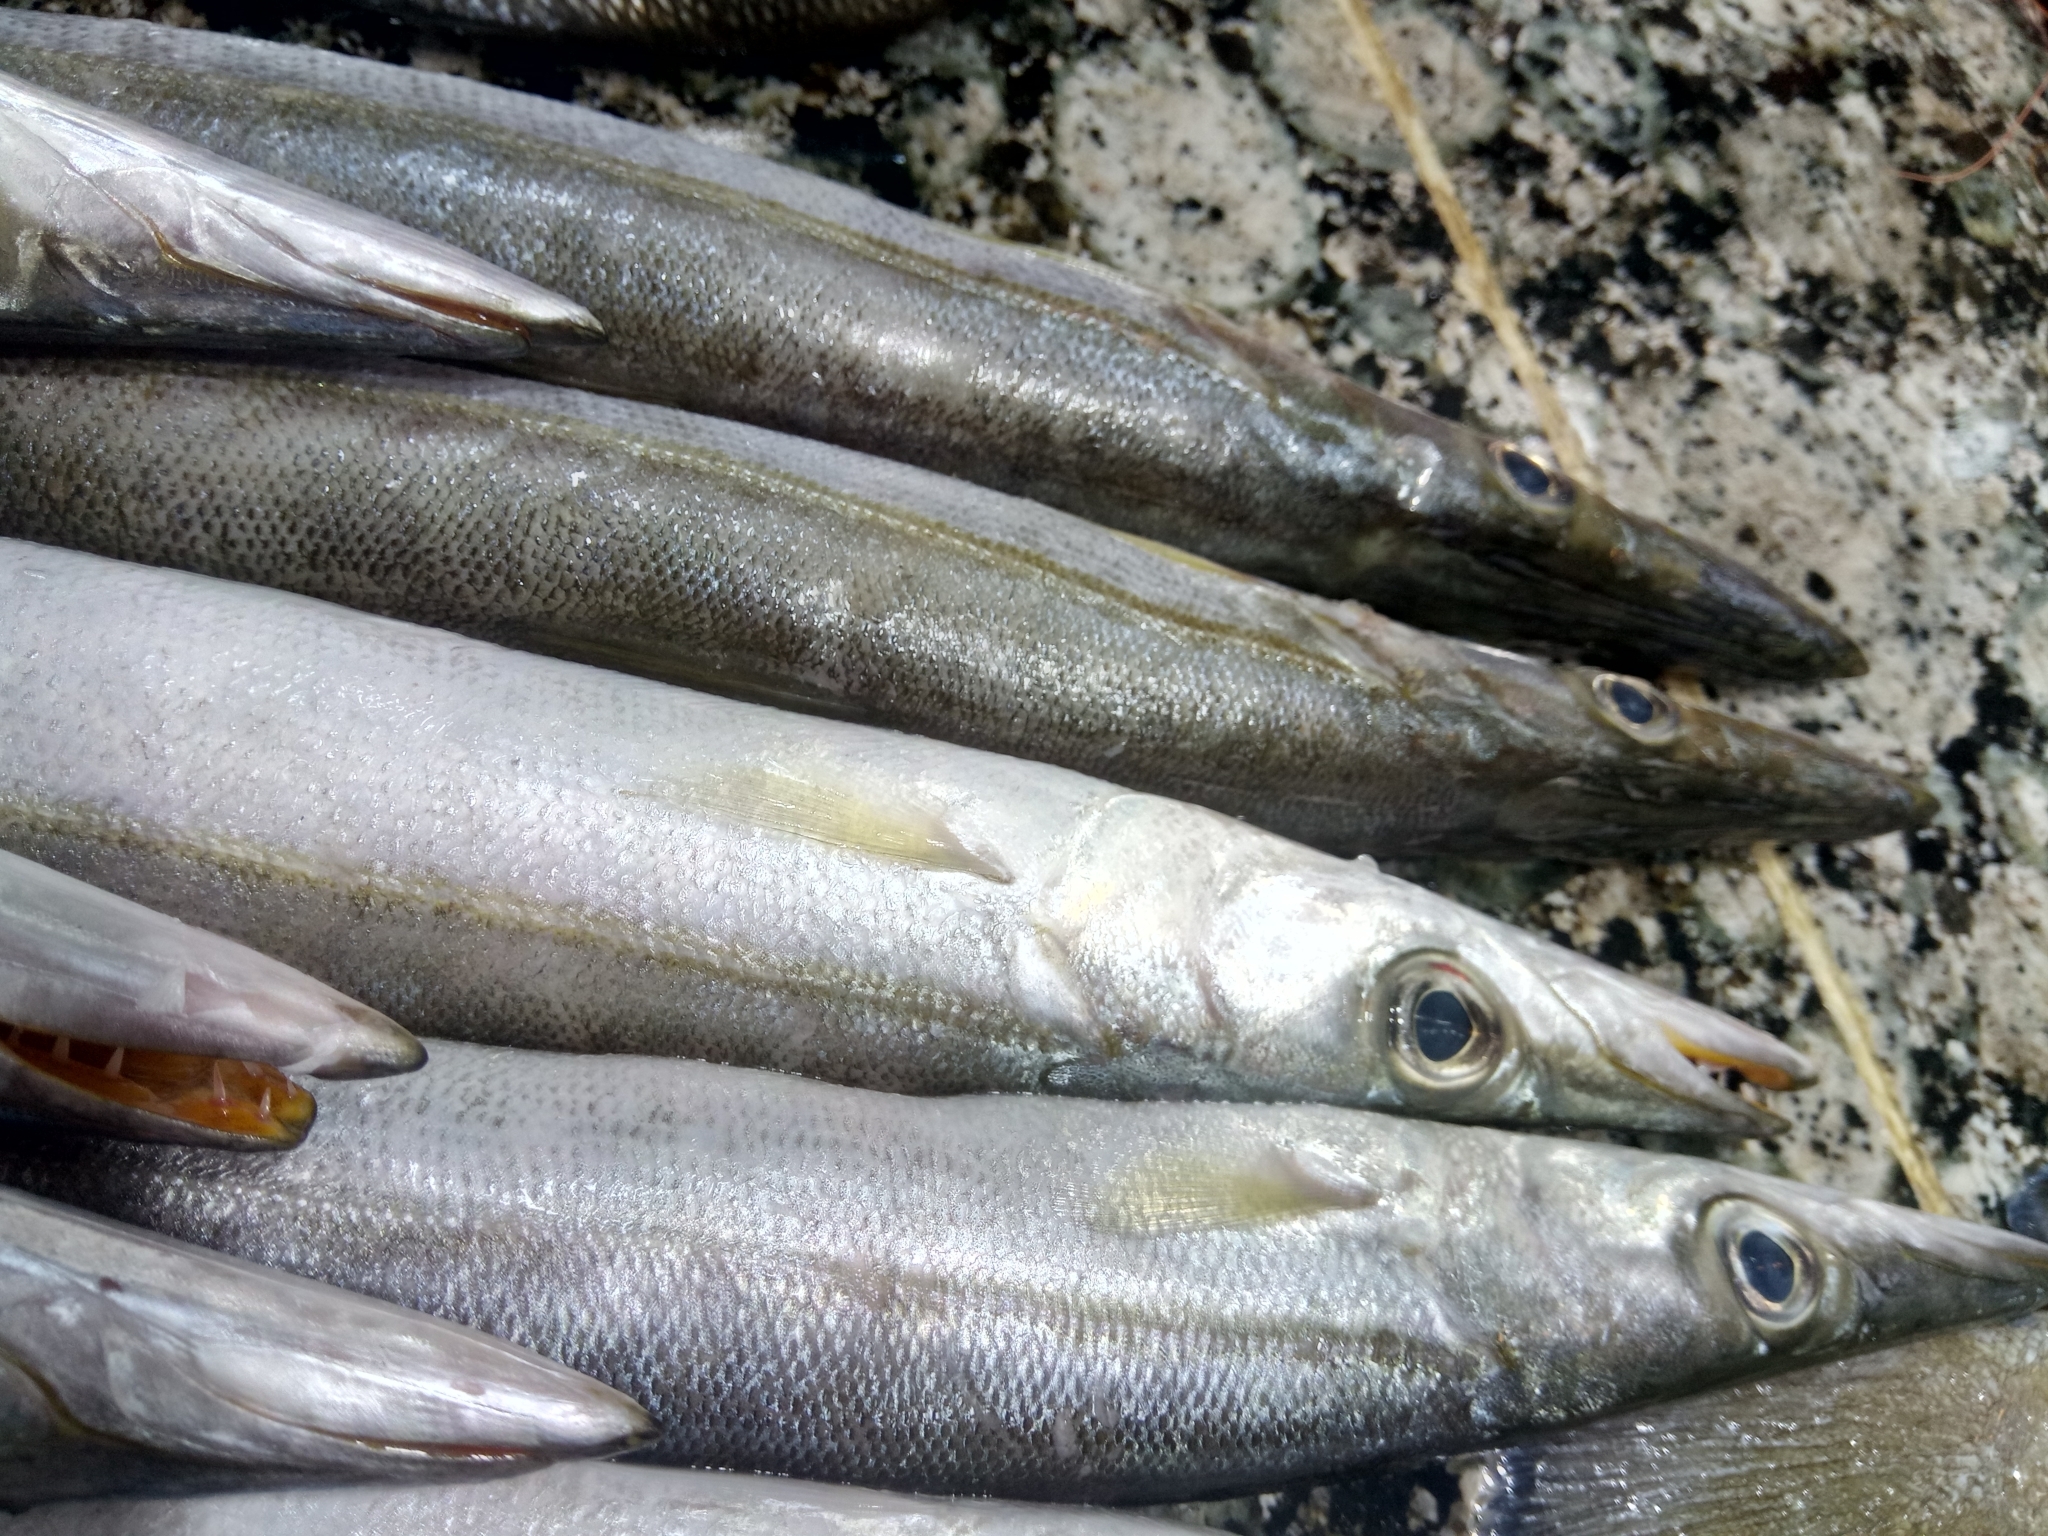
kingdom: Animalia
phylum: Chordata
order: Perciformes
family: Sphyraenidae
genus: Sphyraena
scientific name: Sphyraena sphyraena
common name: European barracuda
